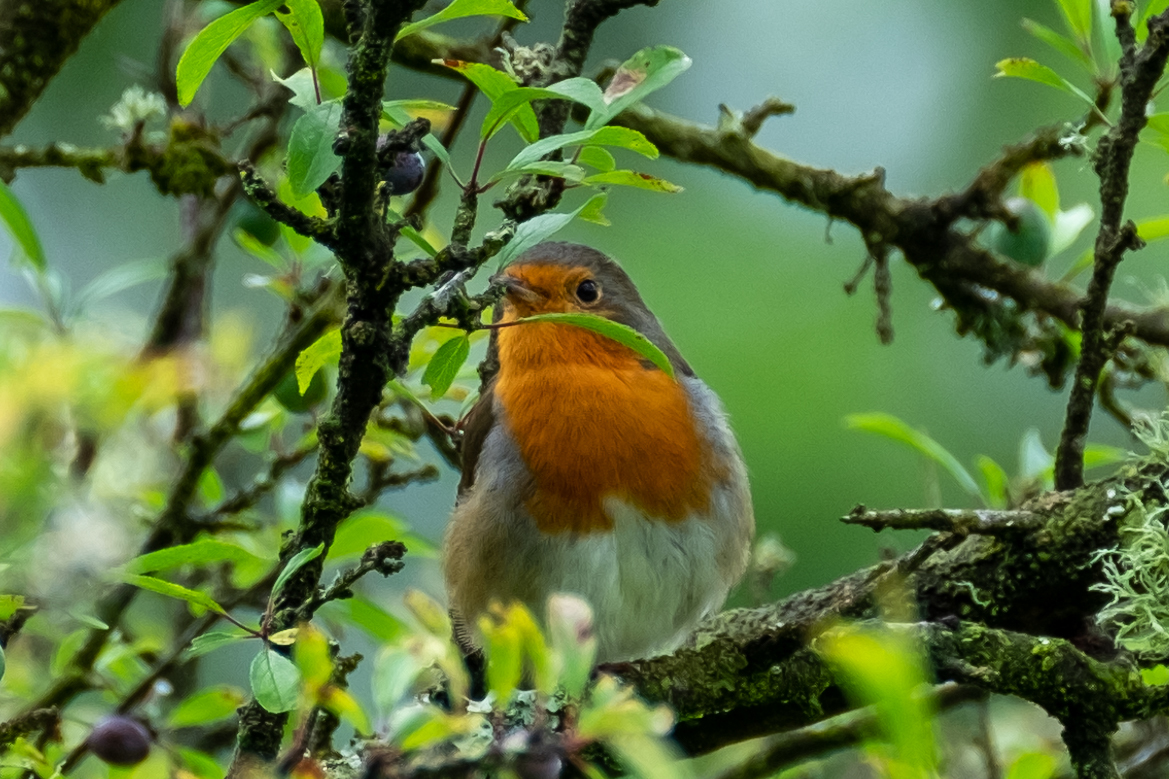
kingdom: Animalia
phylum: Chordata
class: Aves
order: Passeriformes
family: Muscicapidae
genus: Erithacus
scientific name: Erithacus rubecula
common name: European robin
